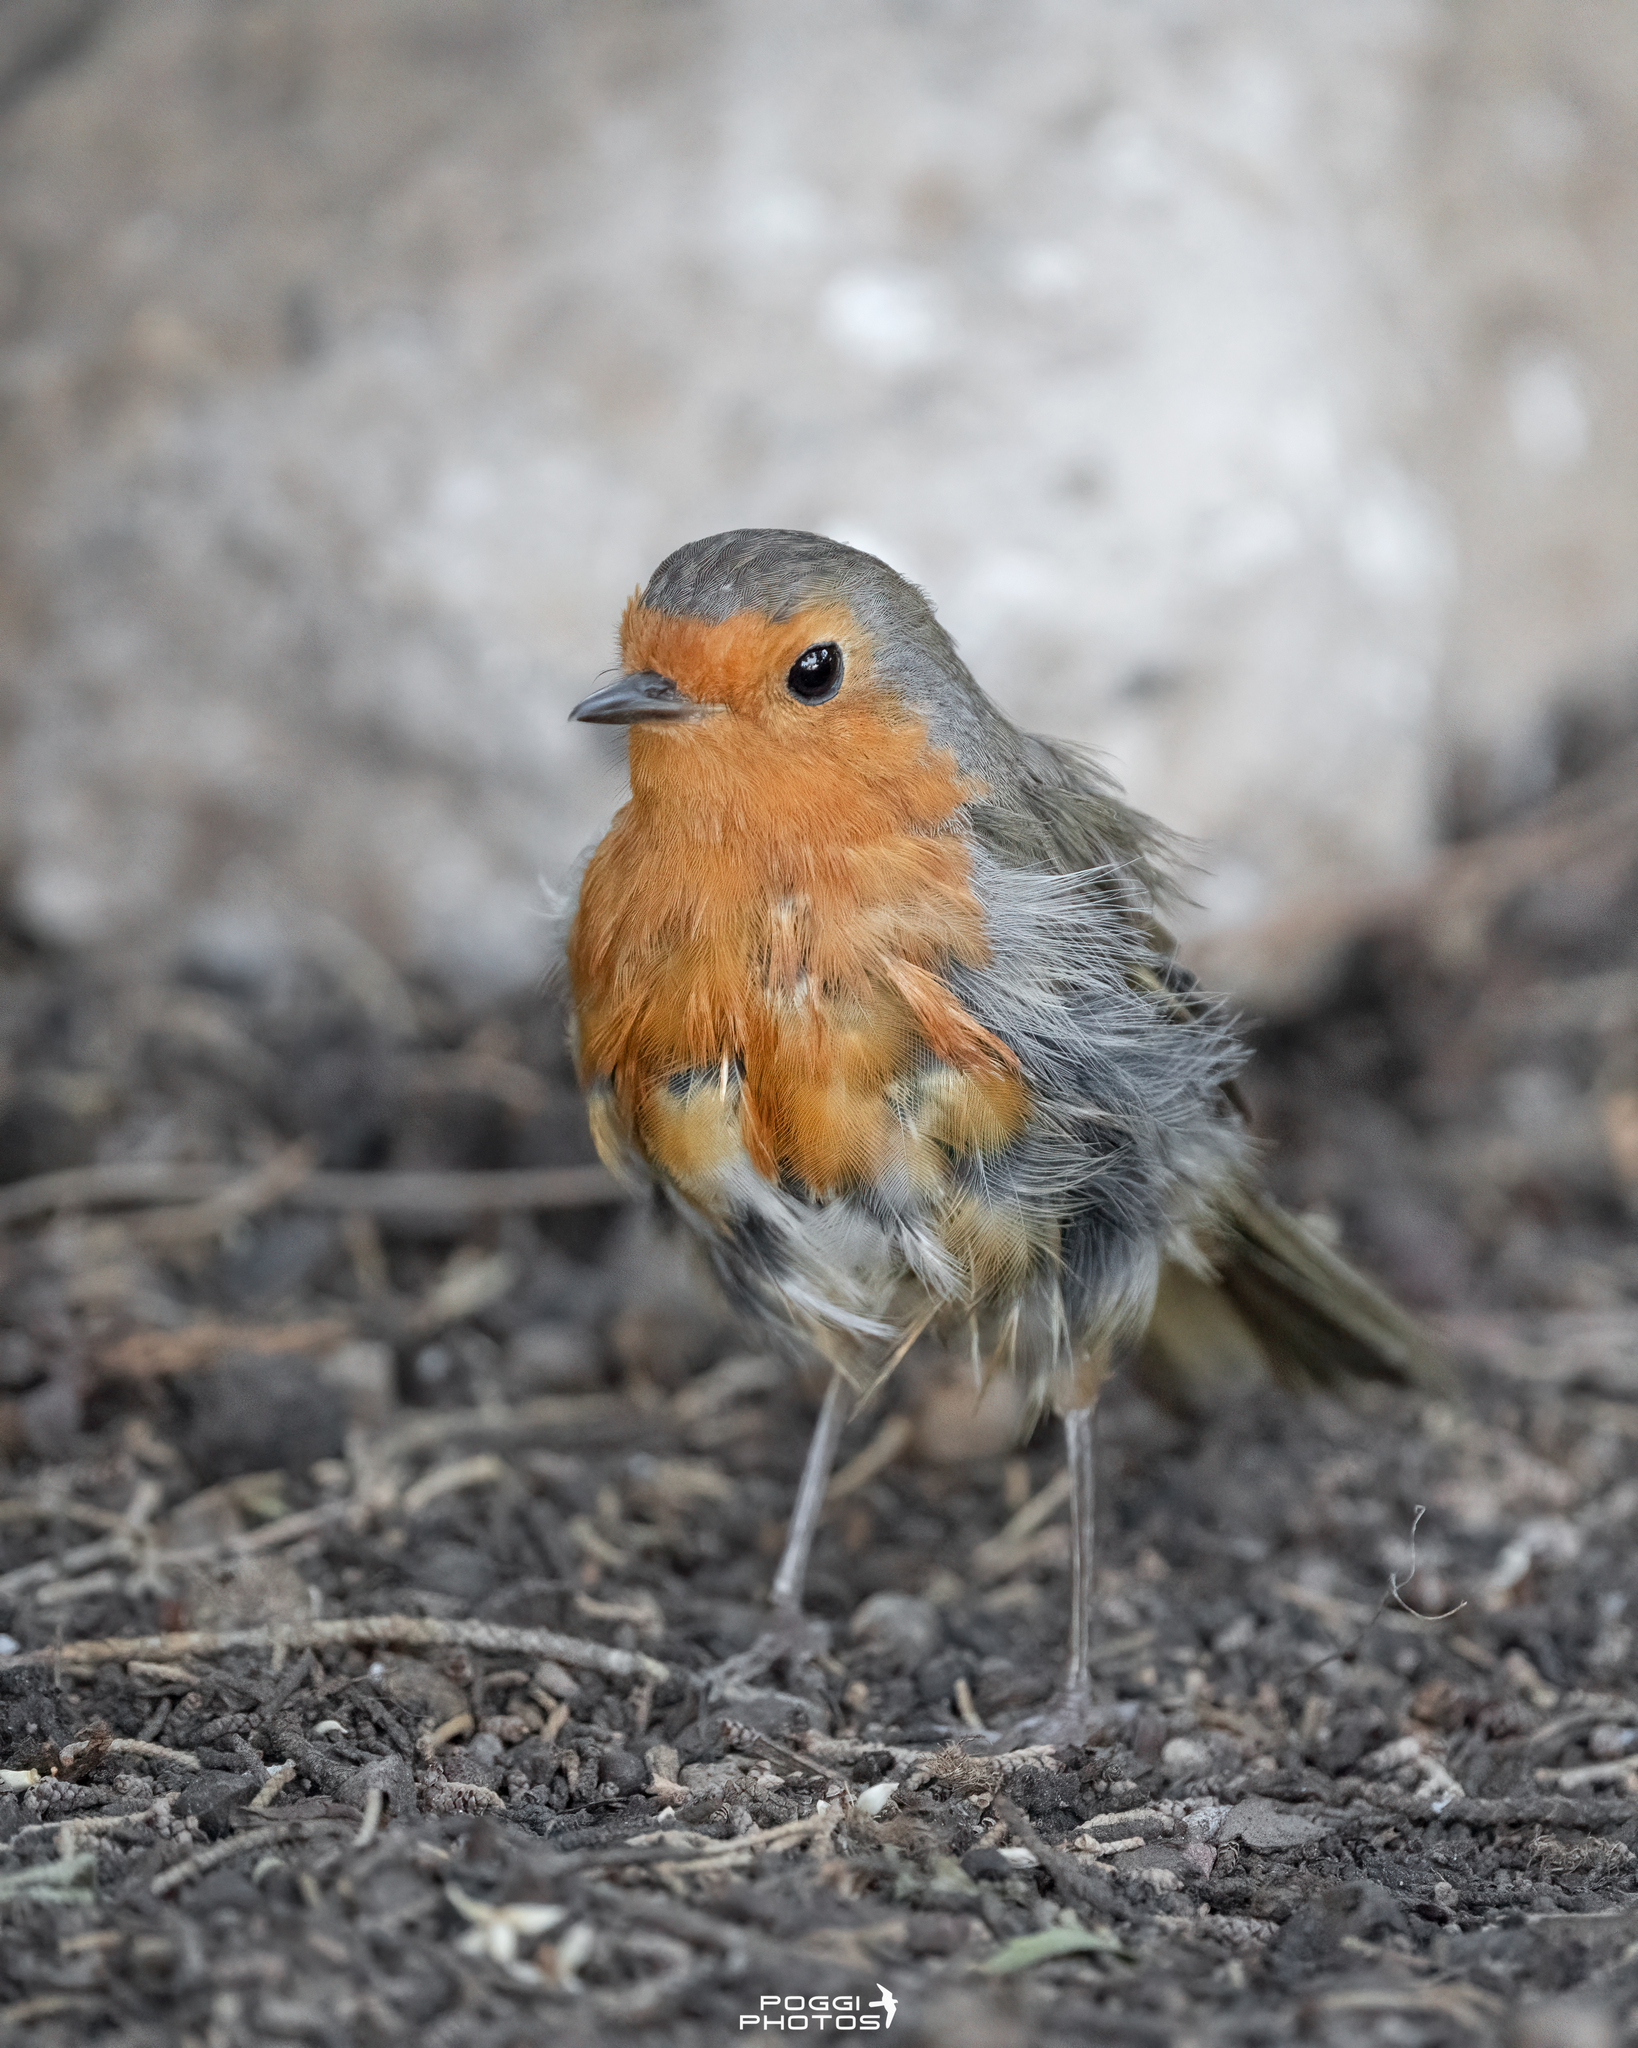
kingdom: Animalia
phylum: Chordata
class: Aves
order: Passeriformes
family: Muscicapidae
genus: Erithacus
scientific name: Erithacus rubecula
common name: European robin
